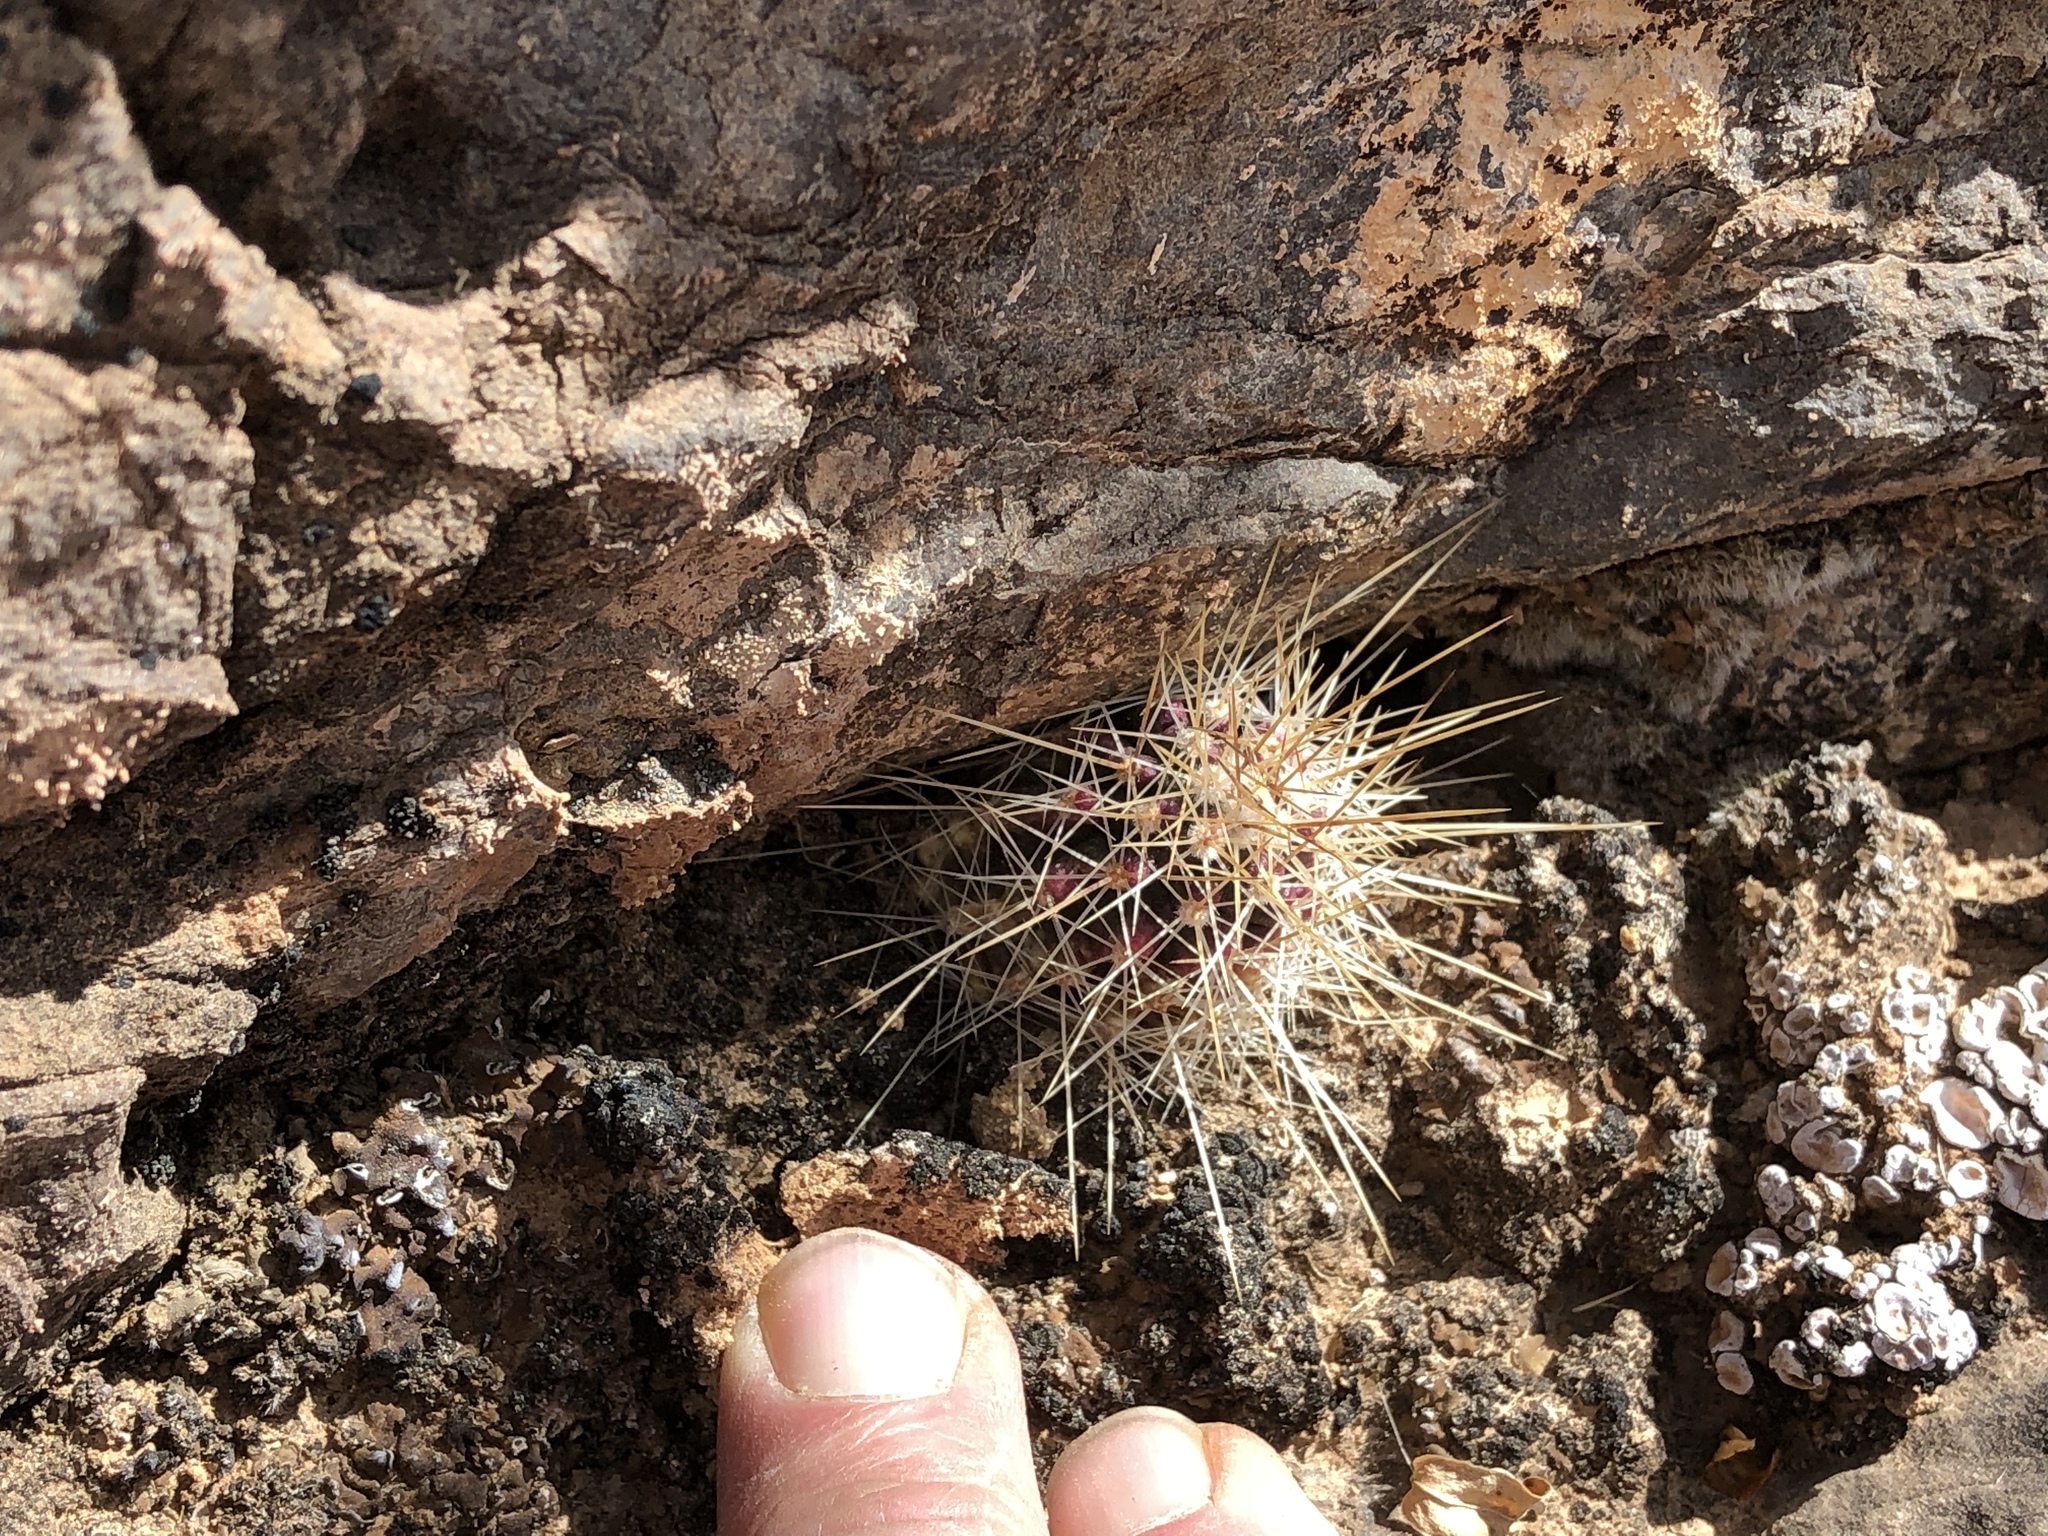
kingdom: Plantae
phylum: Tracheophyta
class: Magnoliopsida
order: Caryophyllales
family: Cactaceae
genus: Echinocereus
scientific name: Echinocereus stramineus
